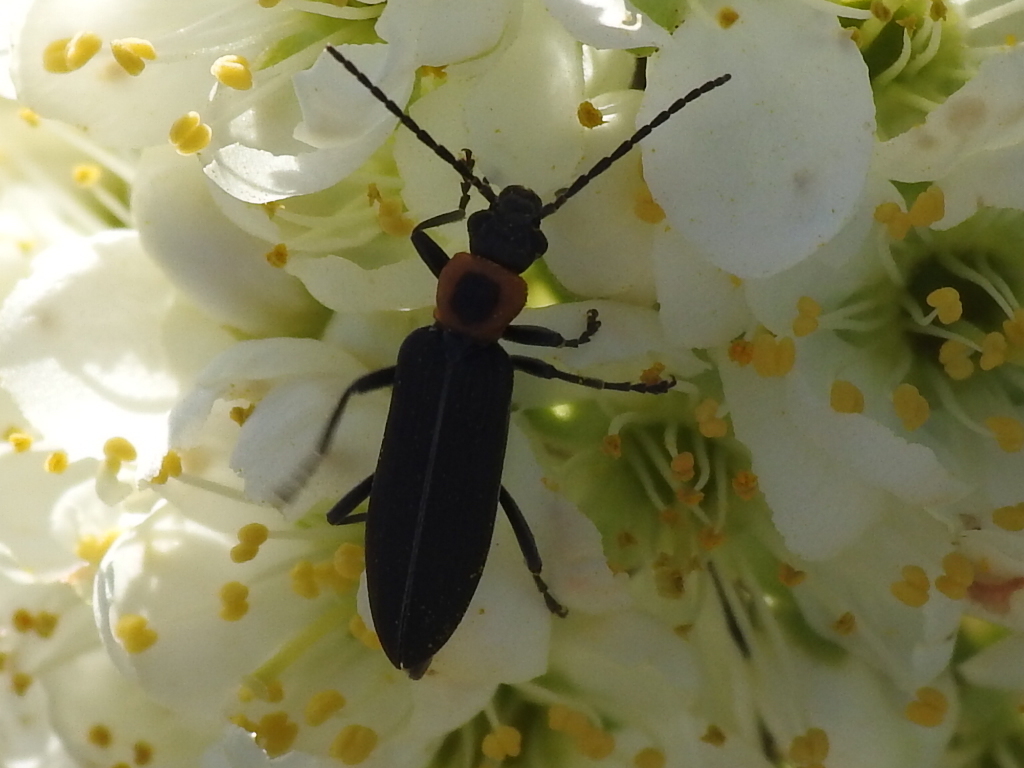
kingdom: Animalia
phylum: Arthropoda
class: Insecta
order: Coleoptera
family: Oedemeridae
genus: Ischnomera
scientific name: Ischnomera
